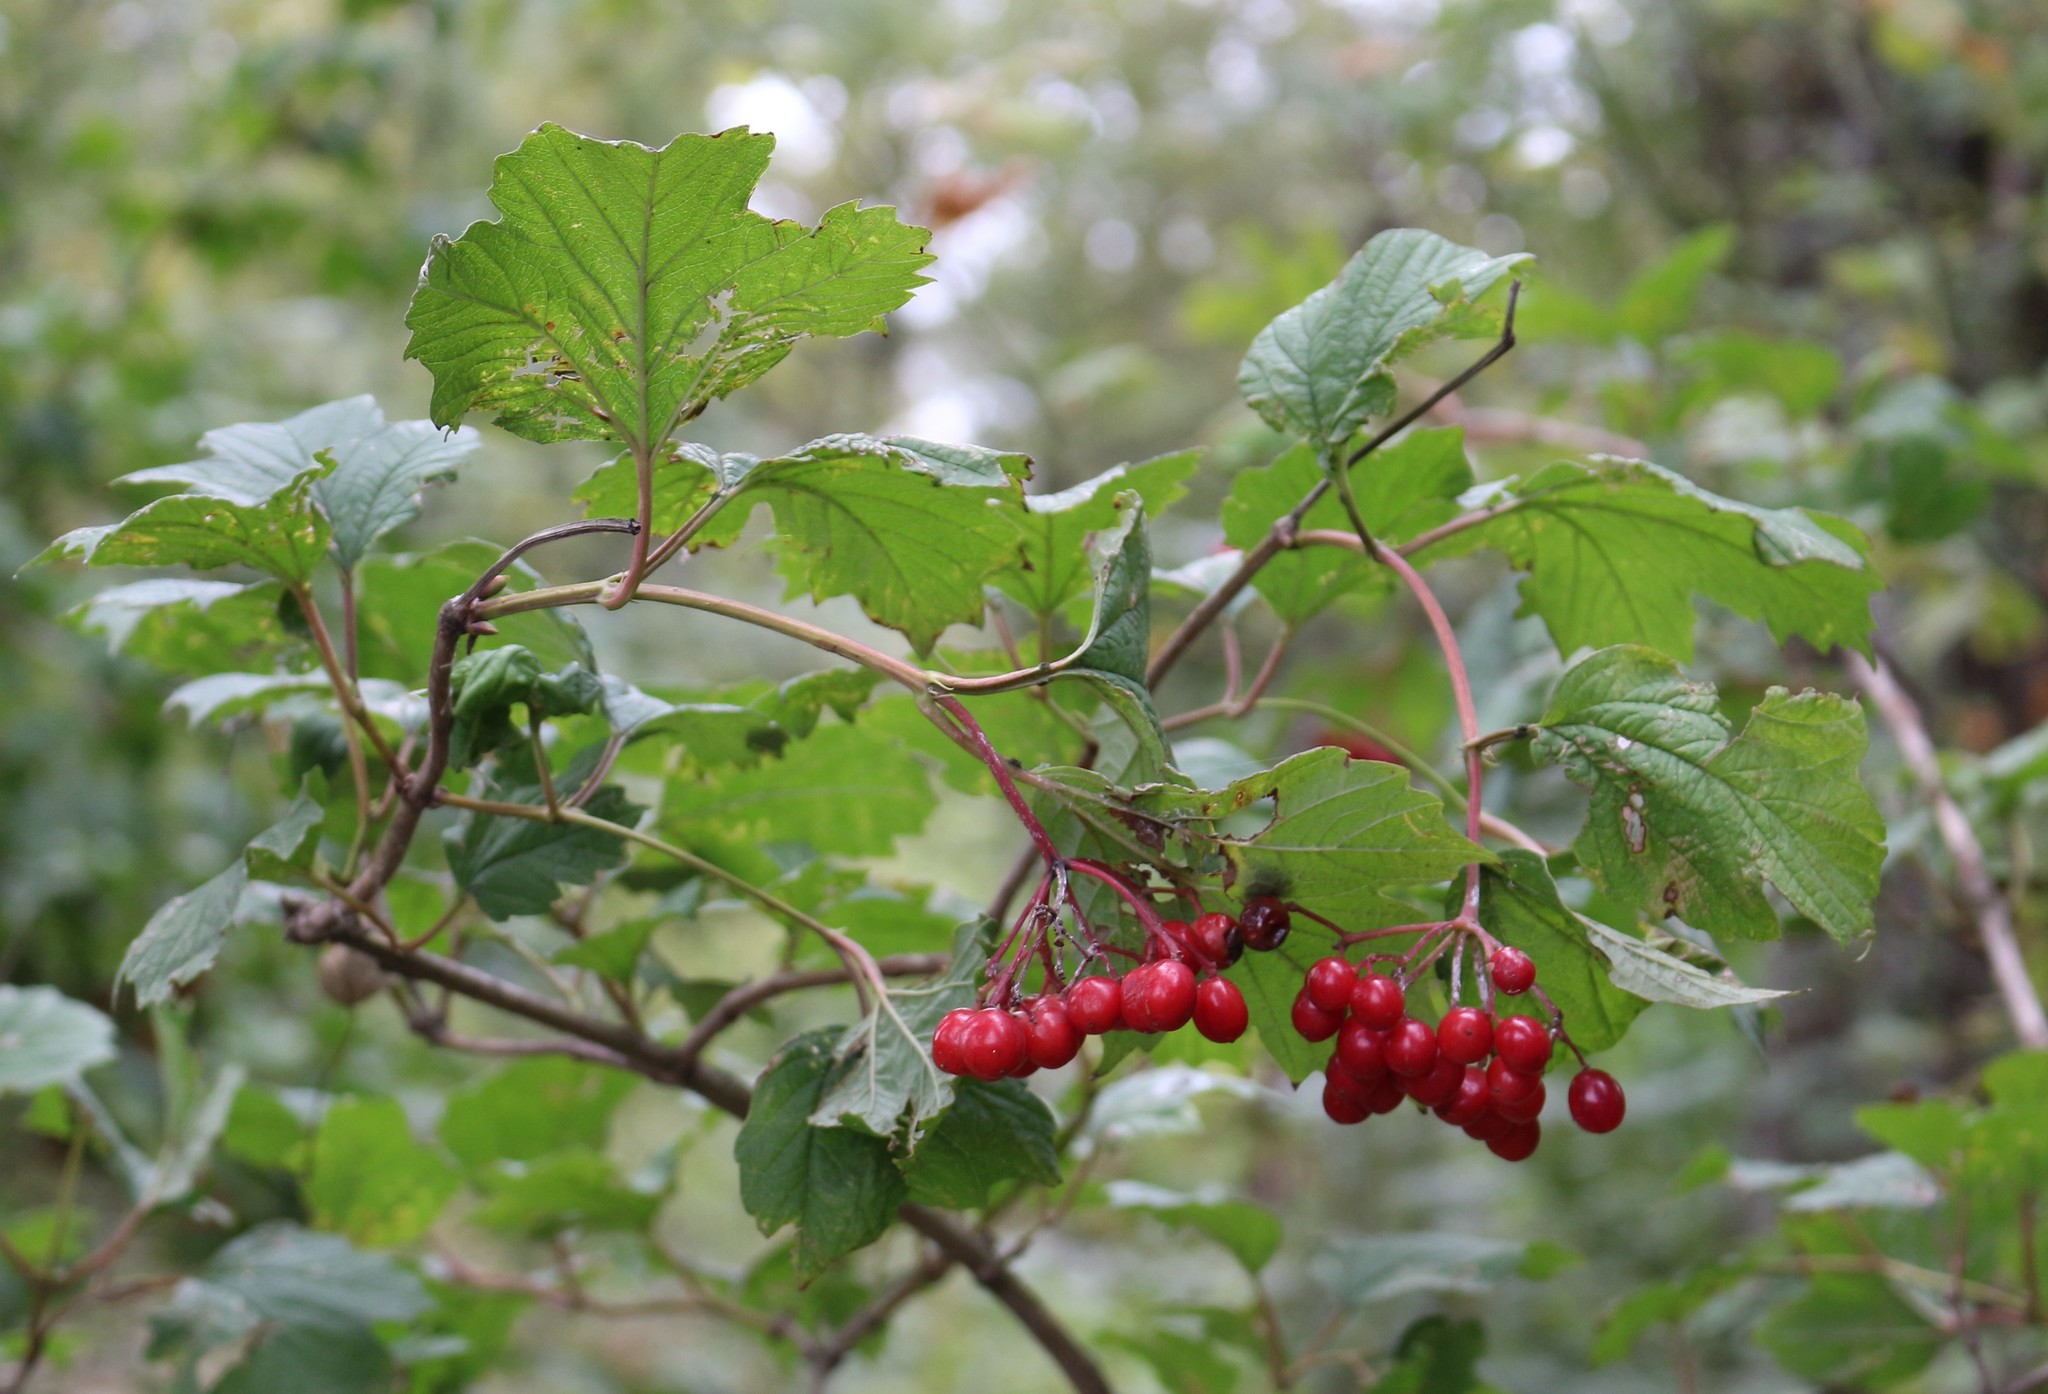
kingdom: Plantae
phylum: Tracheophyta
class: Magnoliopsida
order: Dipsacales
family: Viburnaceae
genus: Viburnum
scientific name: Viburnum opulus
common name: Guelder-rose
